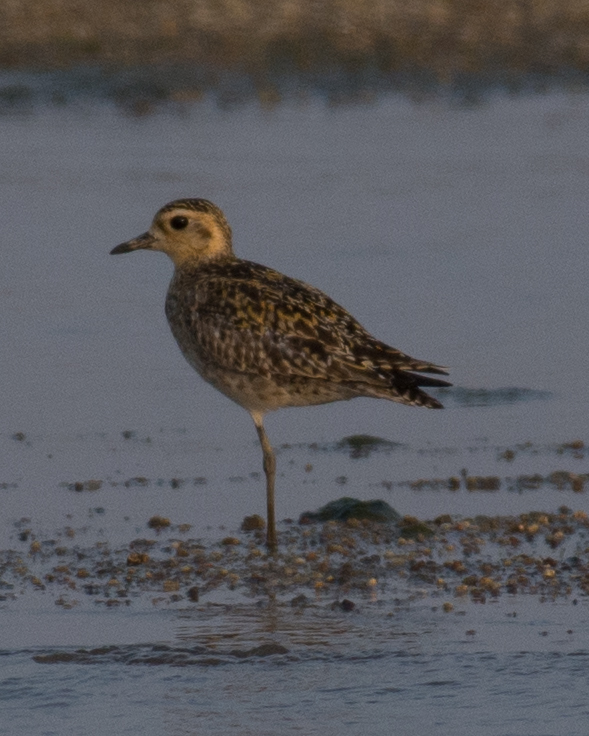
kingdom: Animalia
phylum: Chordata
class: Aves
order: Charadriiformes
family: Charadriidae
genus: Pluvialis
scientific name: Pluvialis fulva
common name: Pacific golden plover
